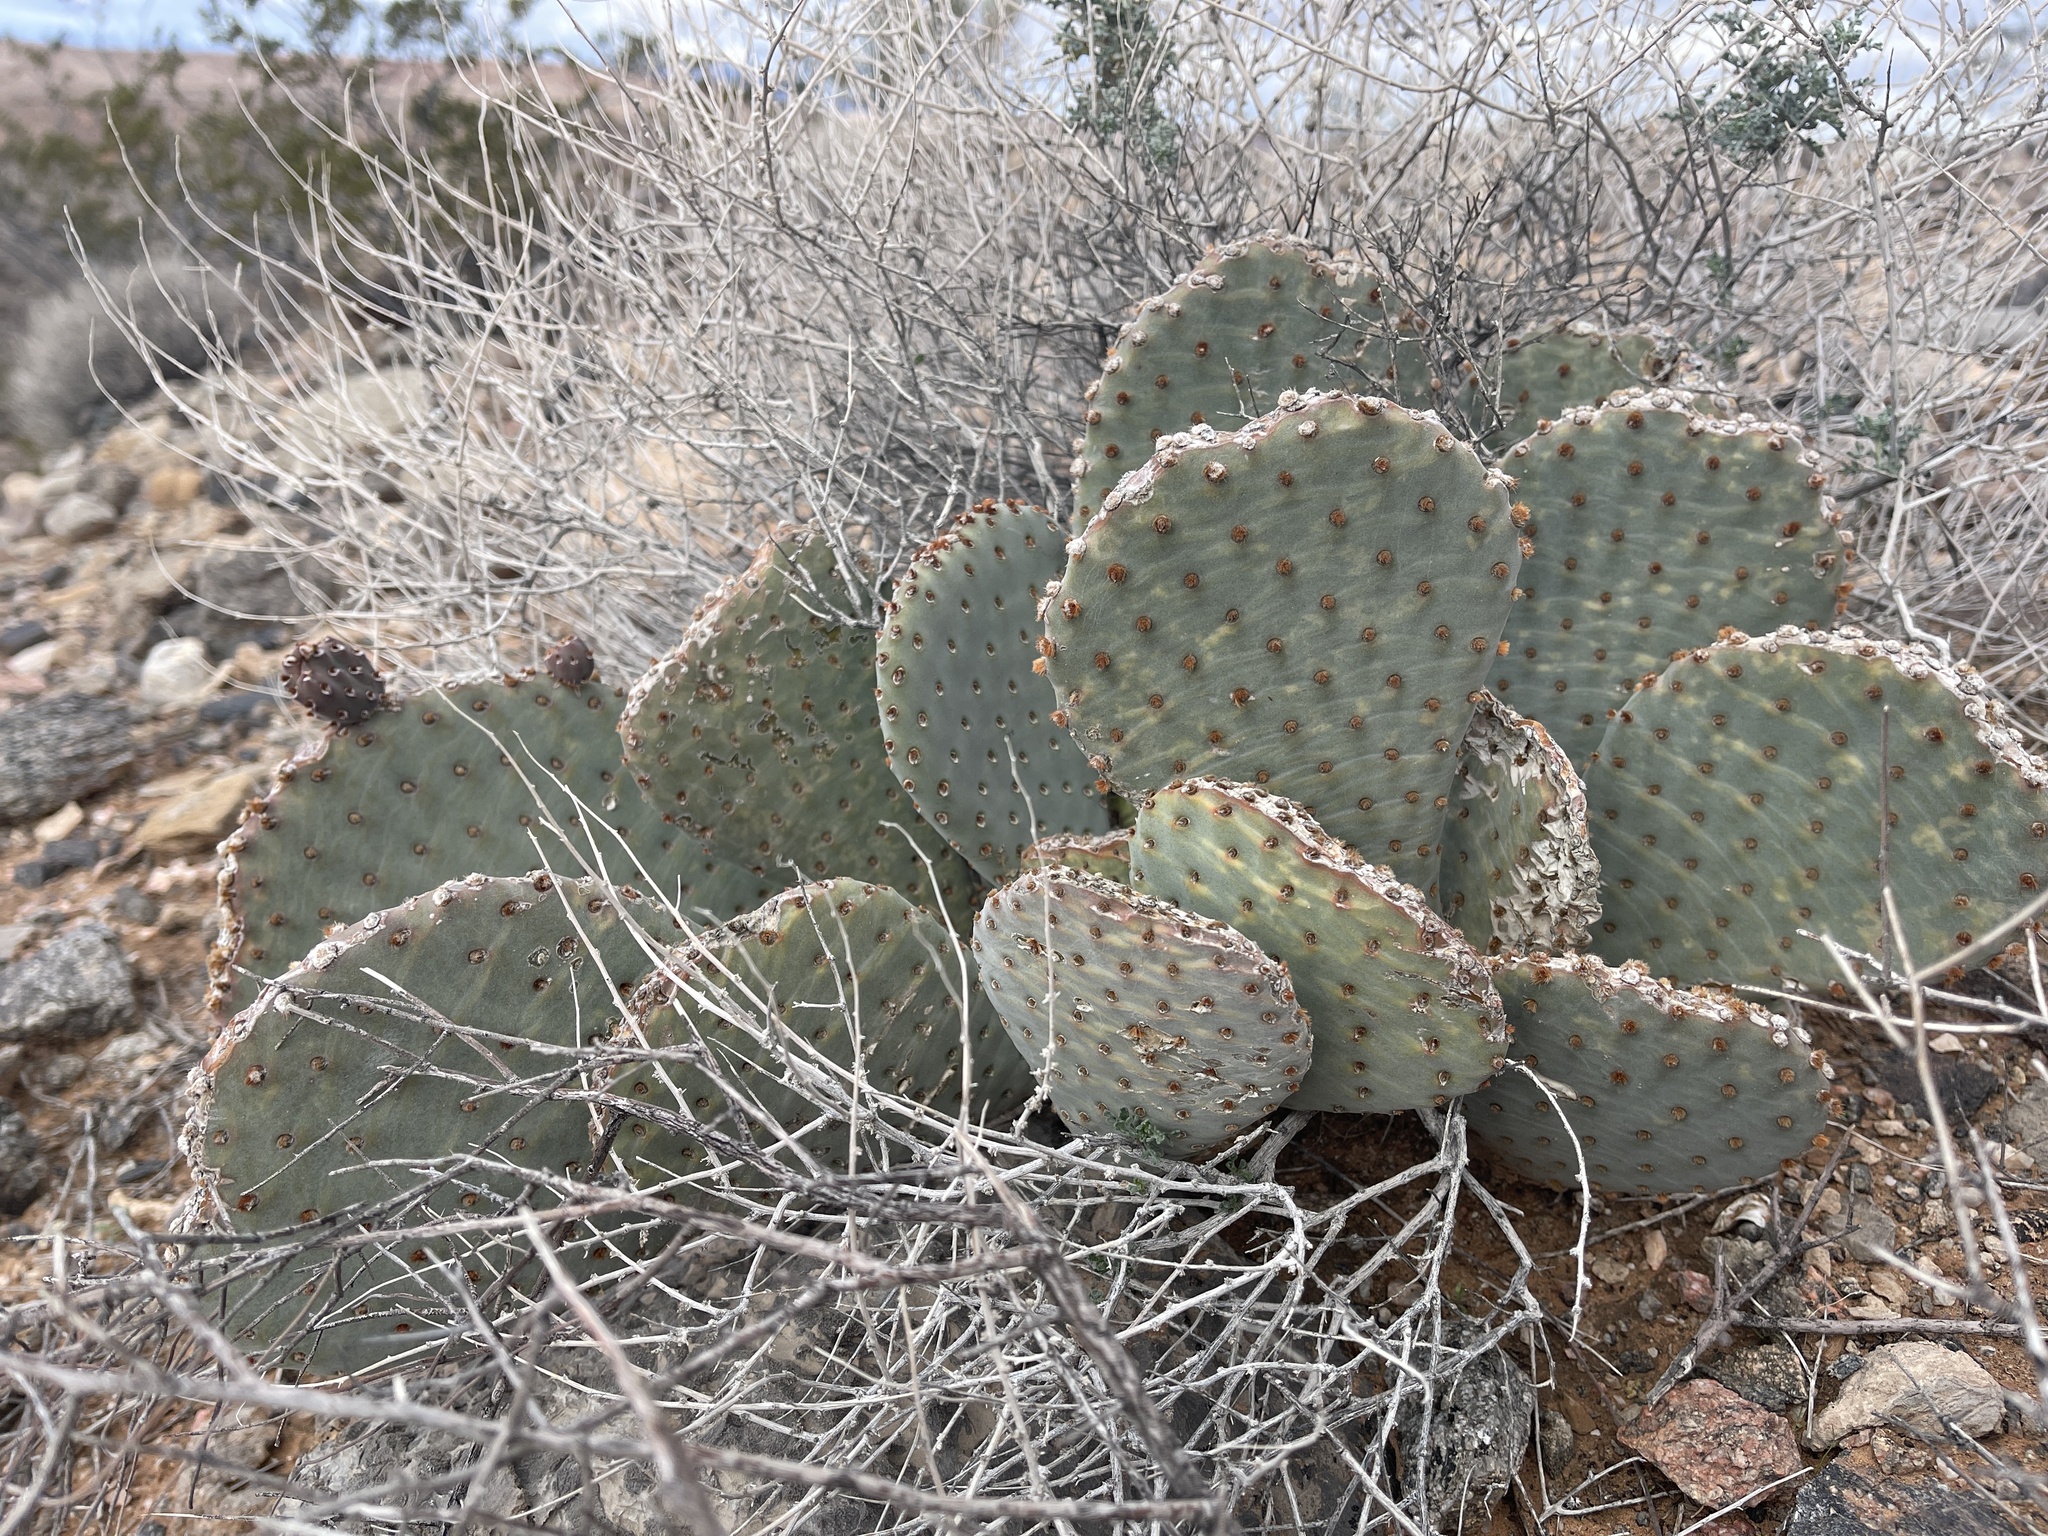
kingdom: Plantae
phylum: Tracheophyta
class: Magnoliopsida
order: Caryophyllales
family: Cactaceae
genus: Opuntia
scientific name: Opuntia basilaris
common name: Beavertail prickly-pear
